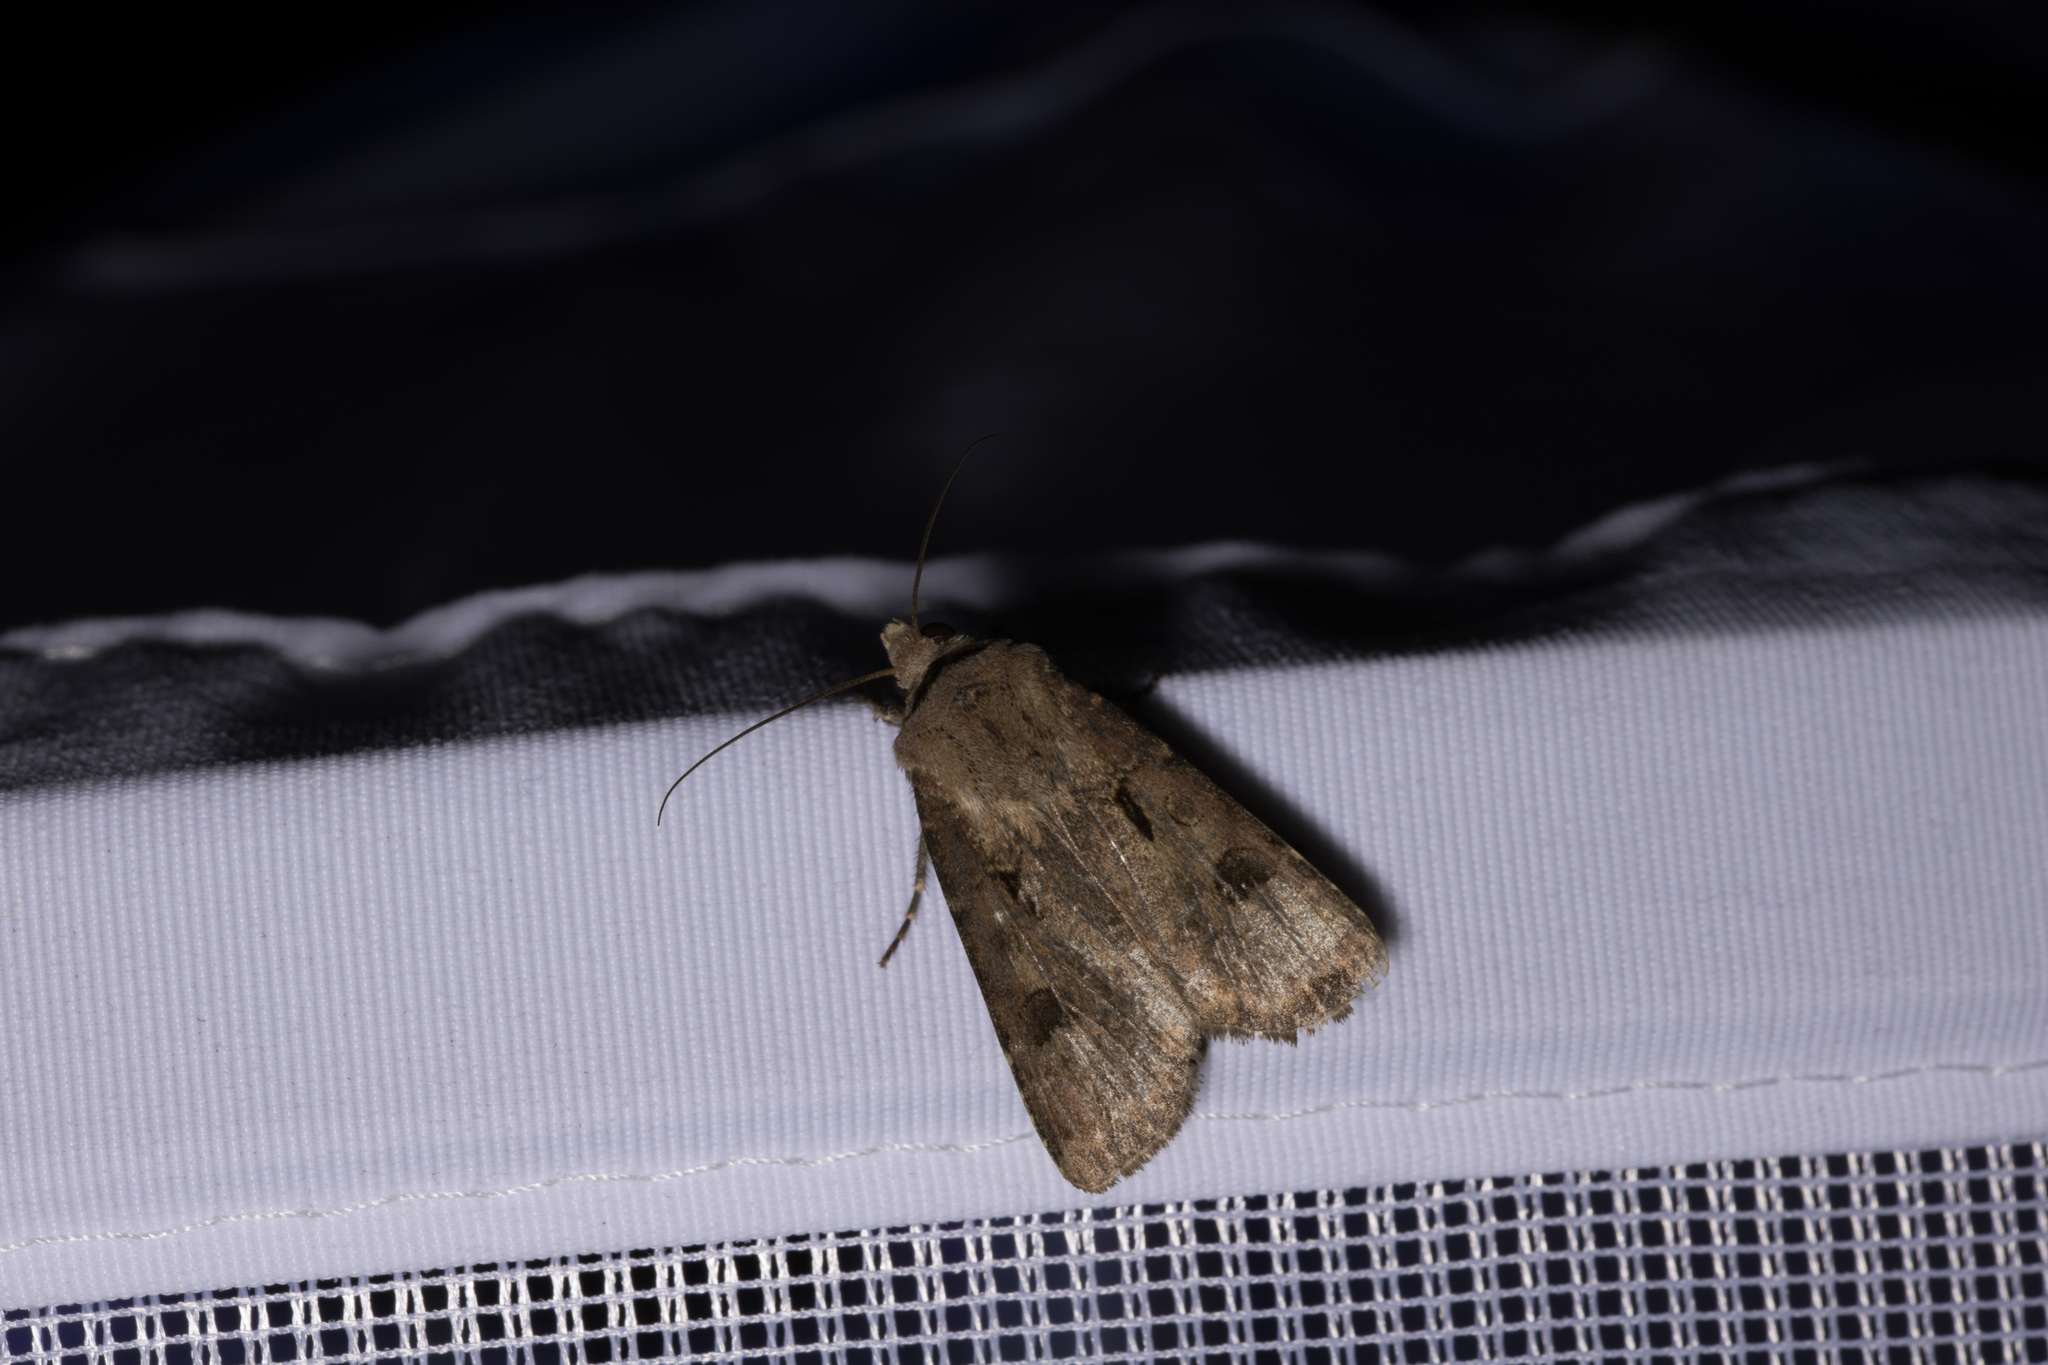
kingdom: Animalia
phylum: Arthropoda
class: Insecta
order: Lepidoptera
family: Noctuidae
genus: Agrotis
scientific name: Agrotis exclamationis
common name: Heart and dart
